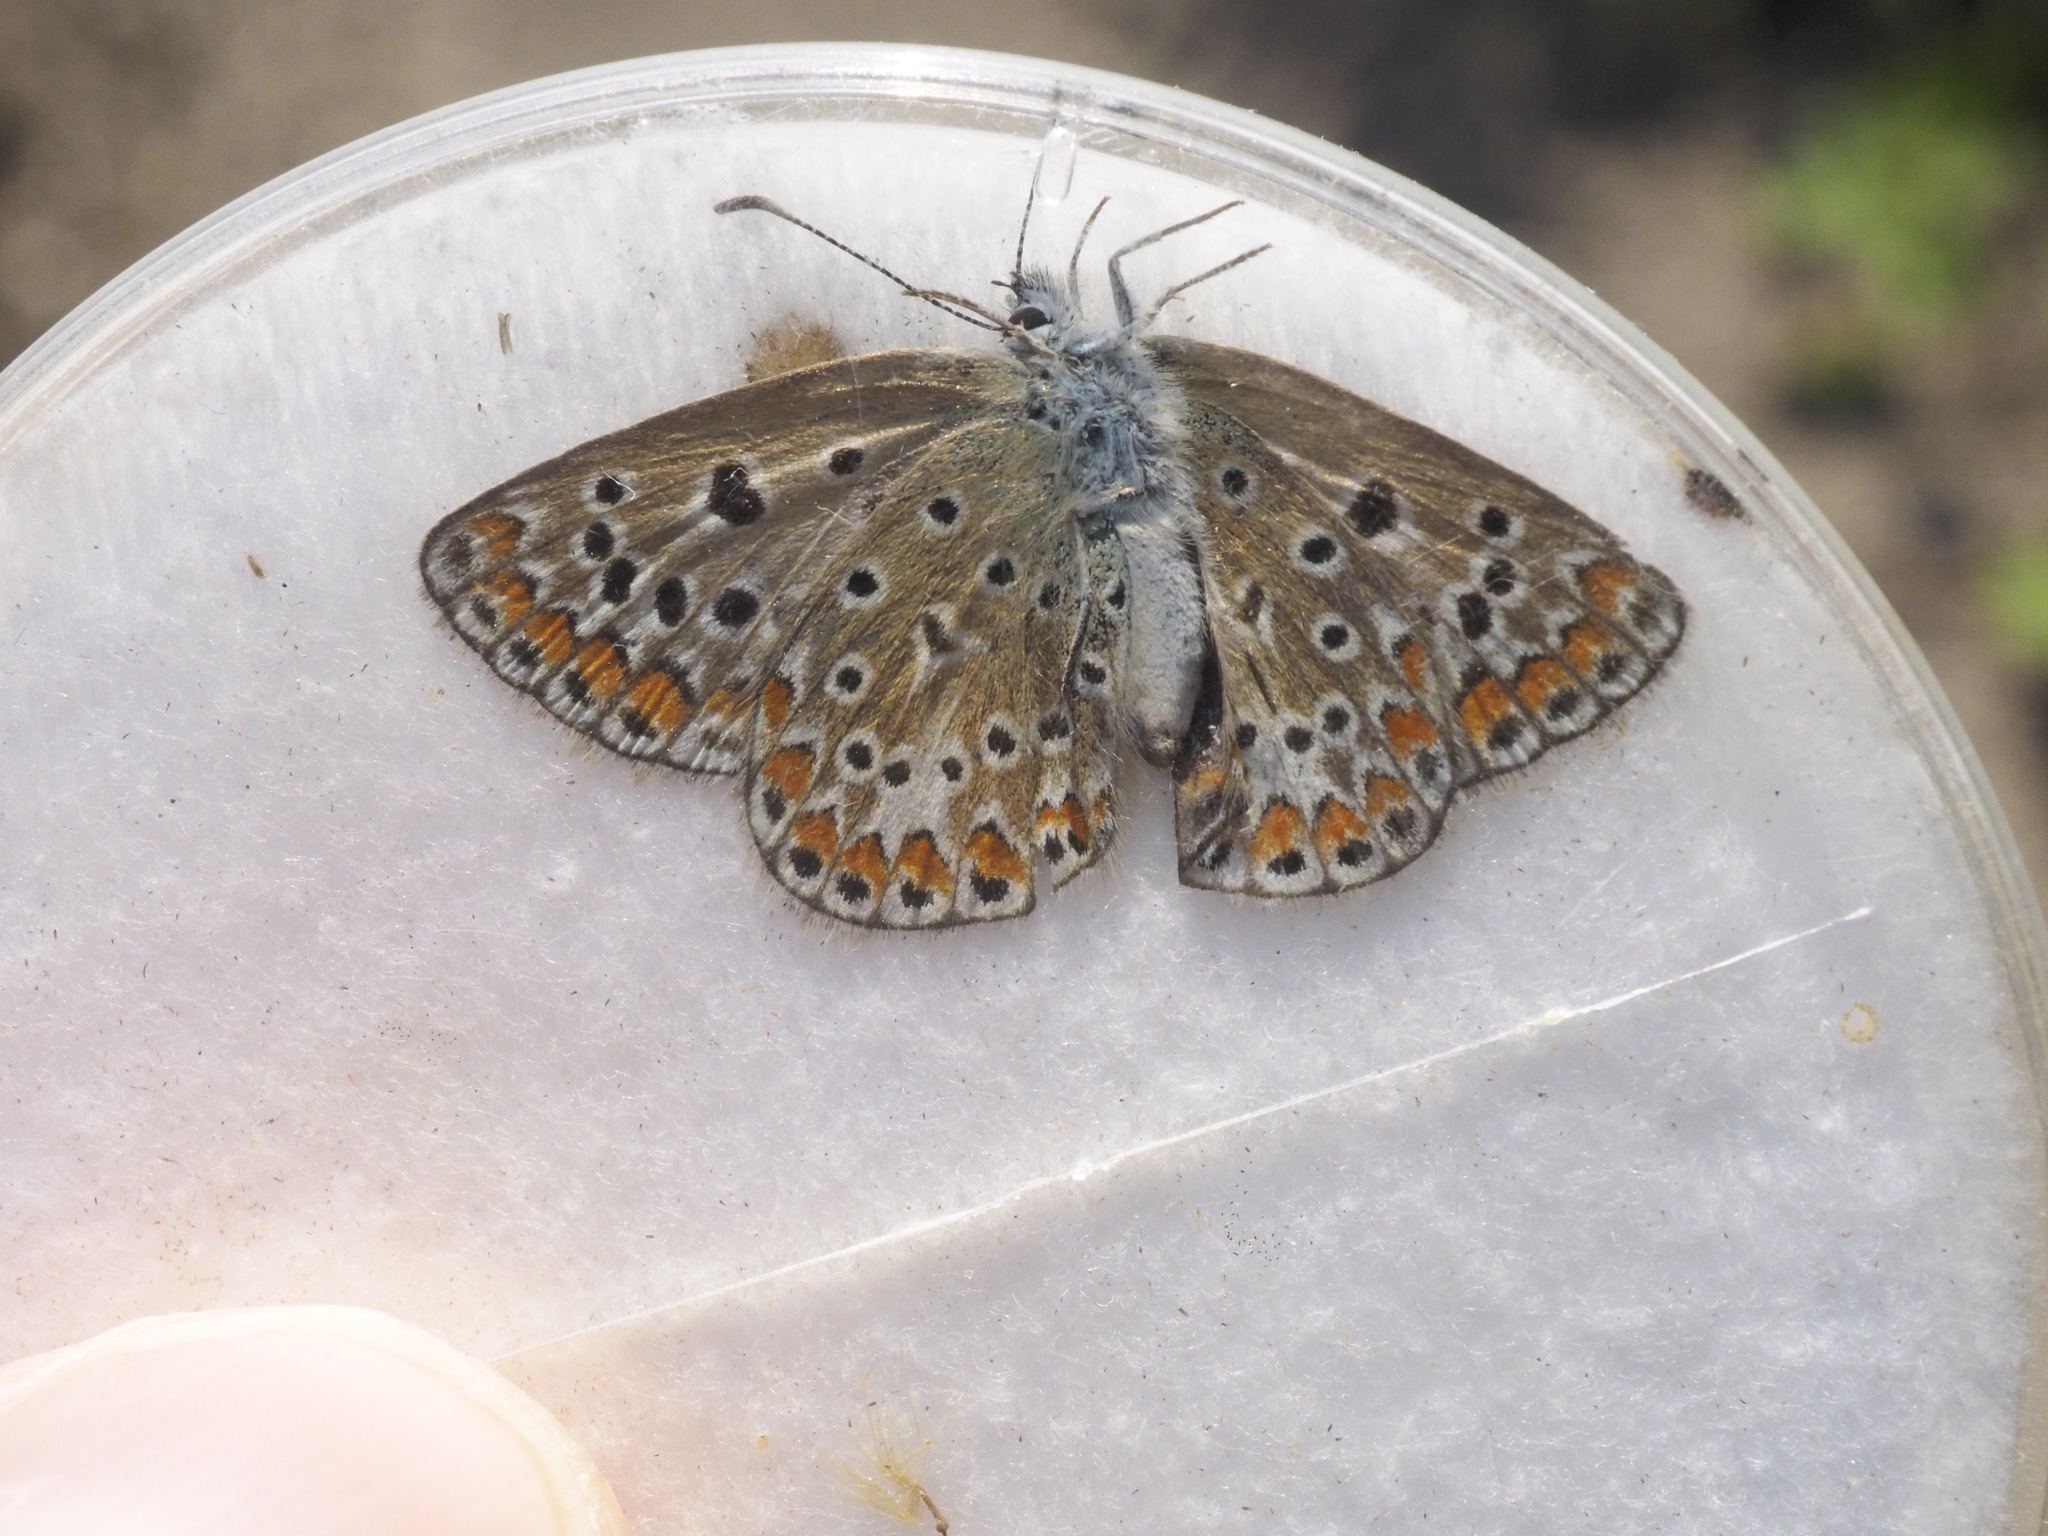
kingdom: Animalia
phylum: Arthropoda
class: Insecta
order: Lepidoptera
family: Lycaenidae
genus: Polyommatus
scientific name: Polyommatus icarus
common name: Common blue
